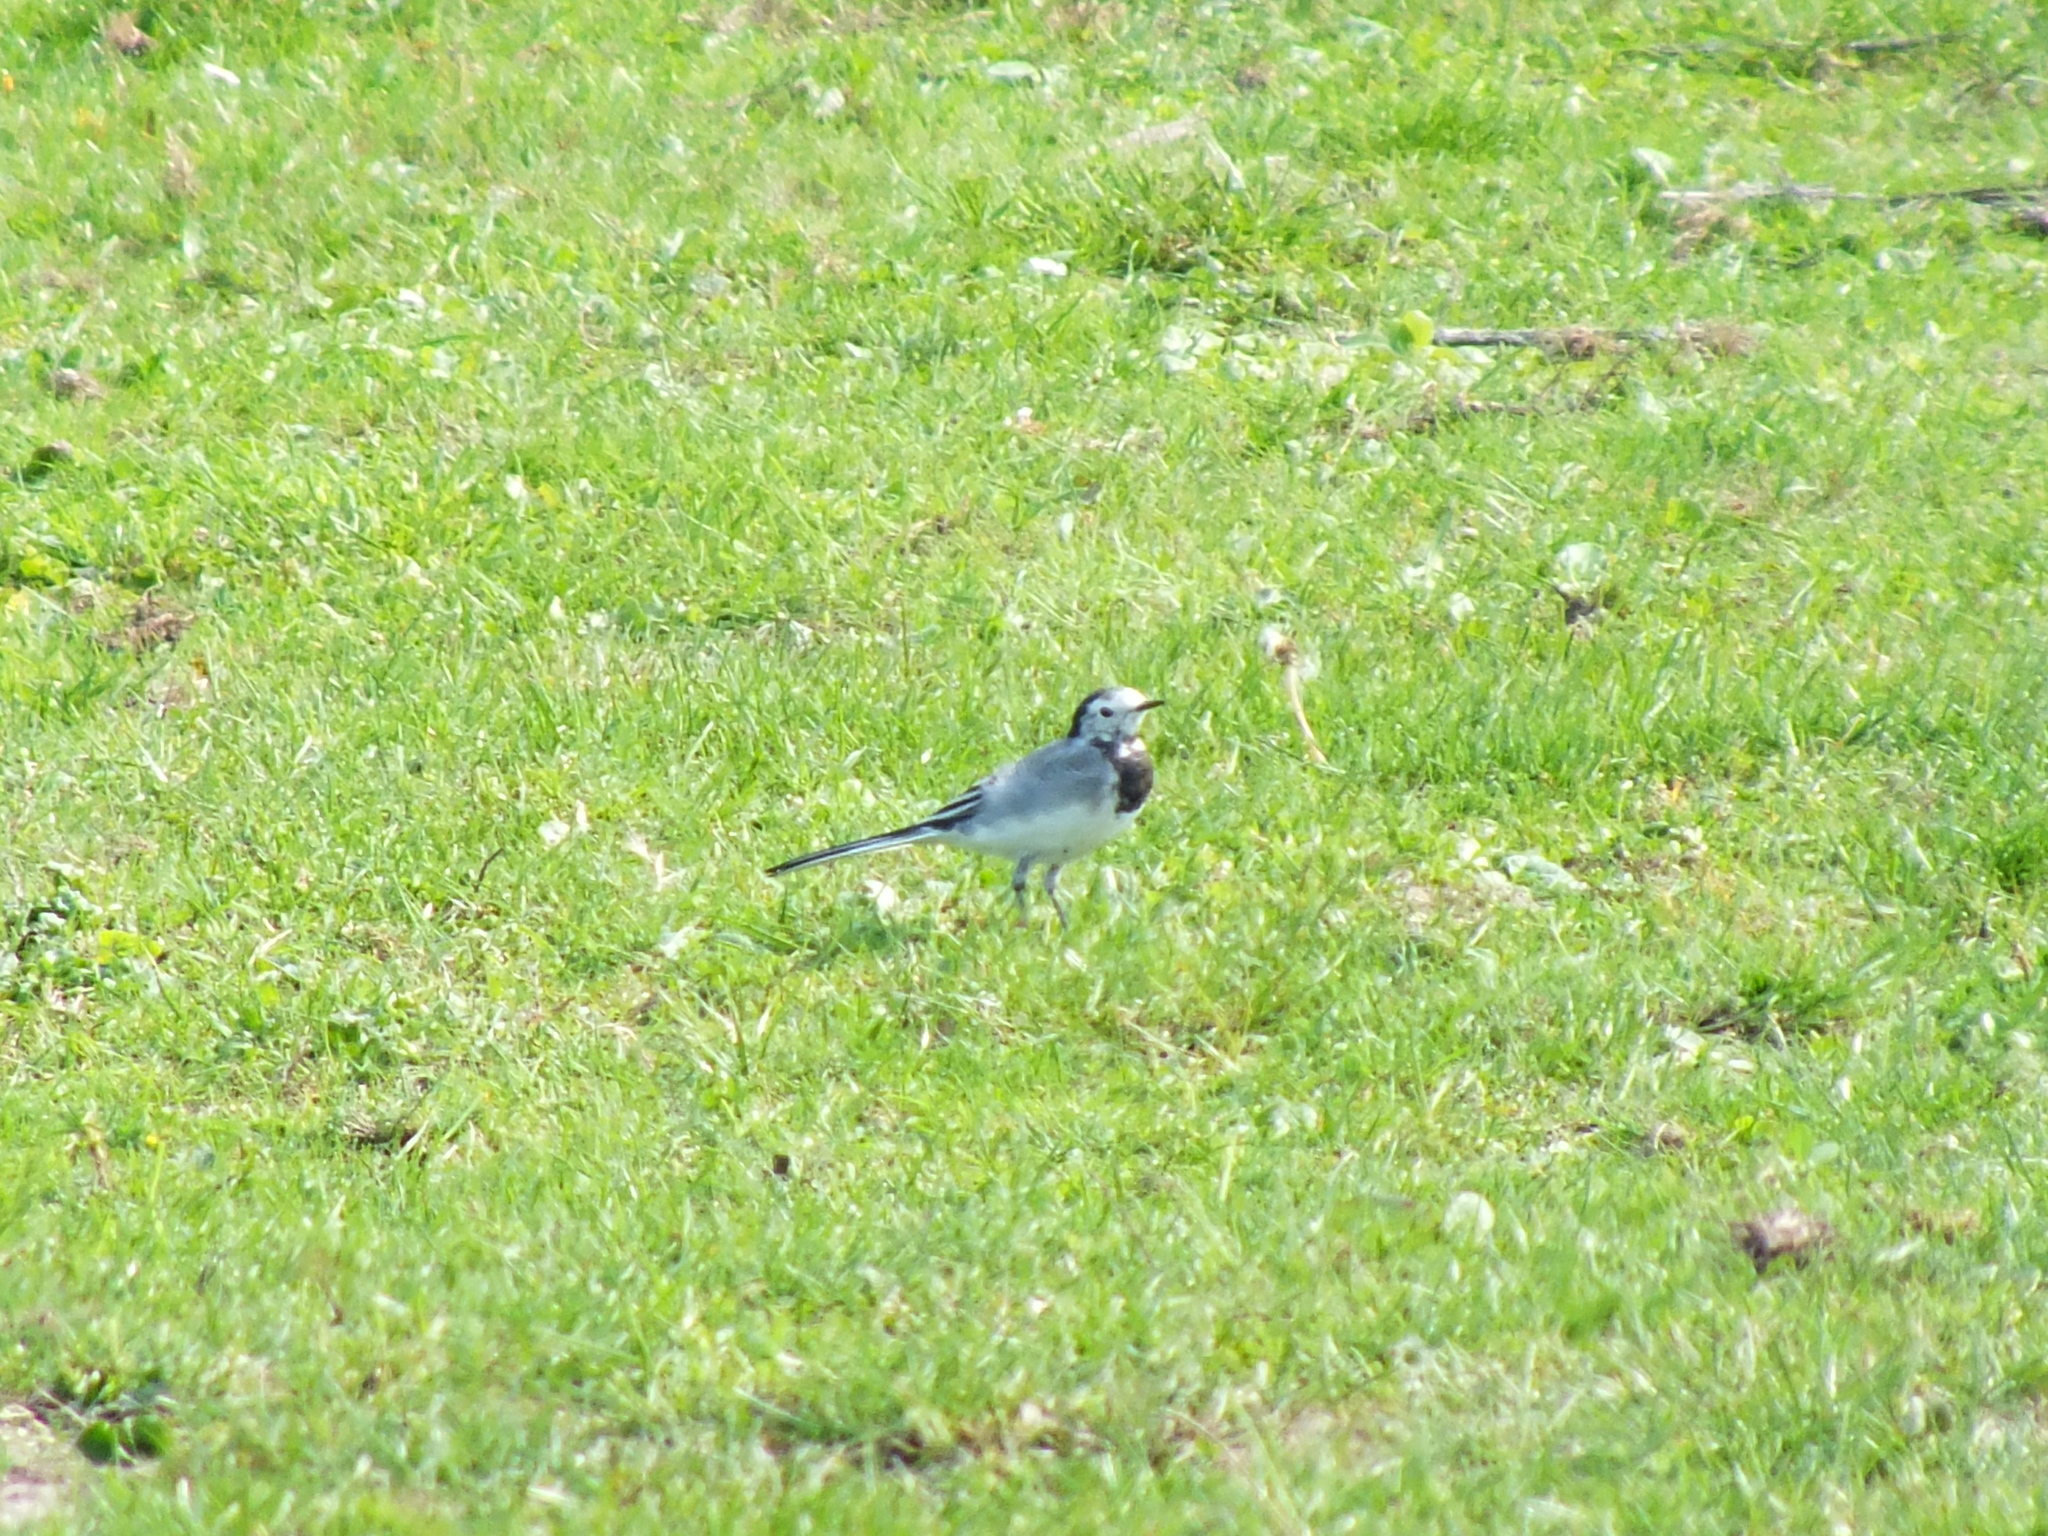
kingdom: Animalia
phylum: Chordata
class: Aves
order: Passeriformes
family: Motacillidae
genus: Motacilla
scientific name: Motacilla alba
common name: White wagtail
